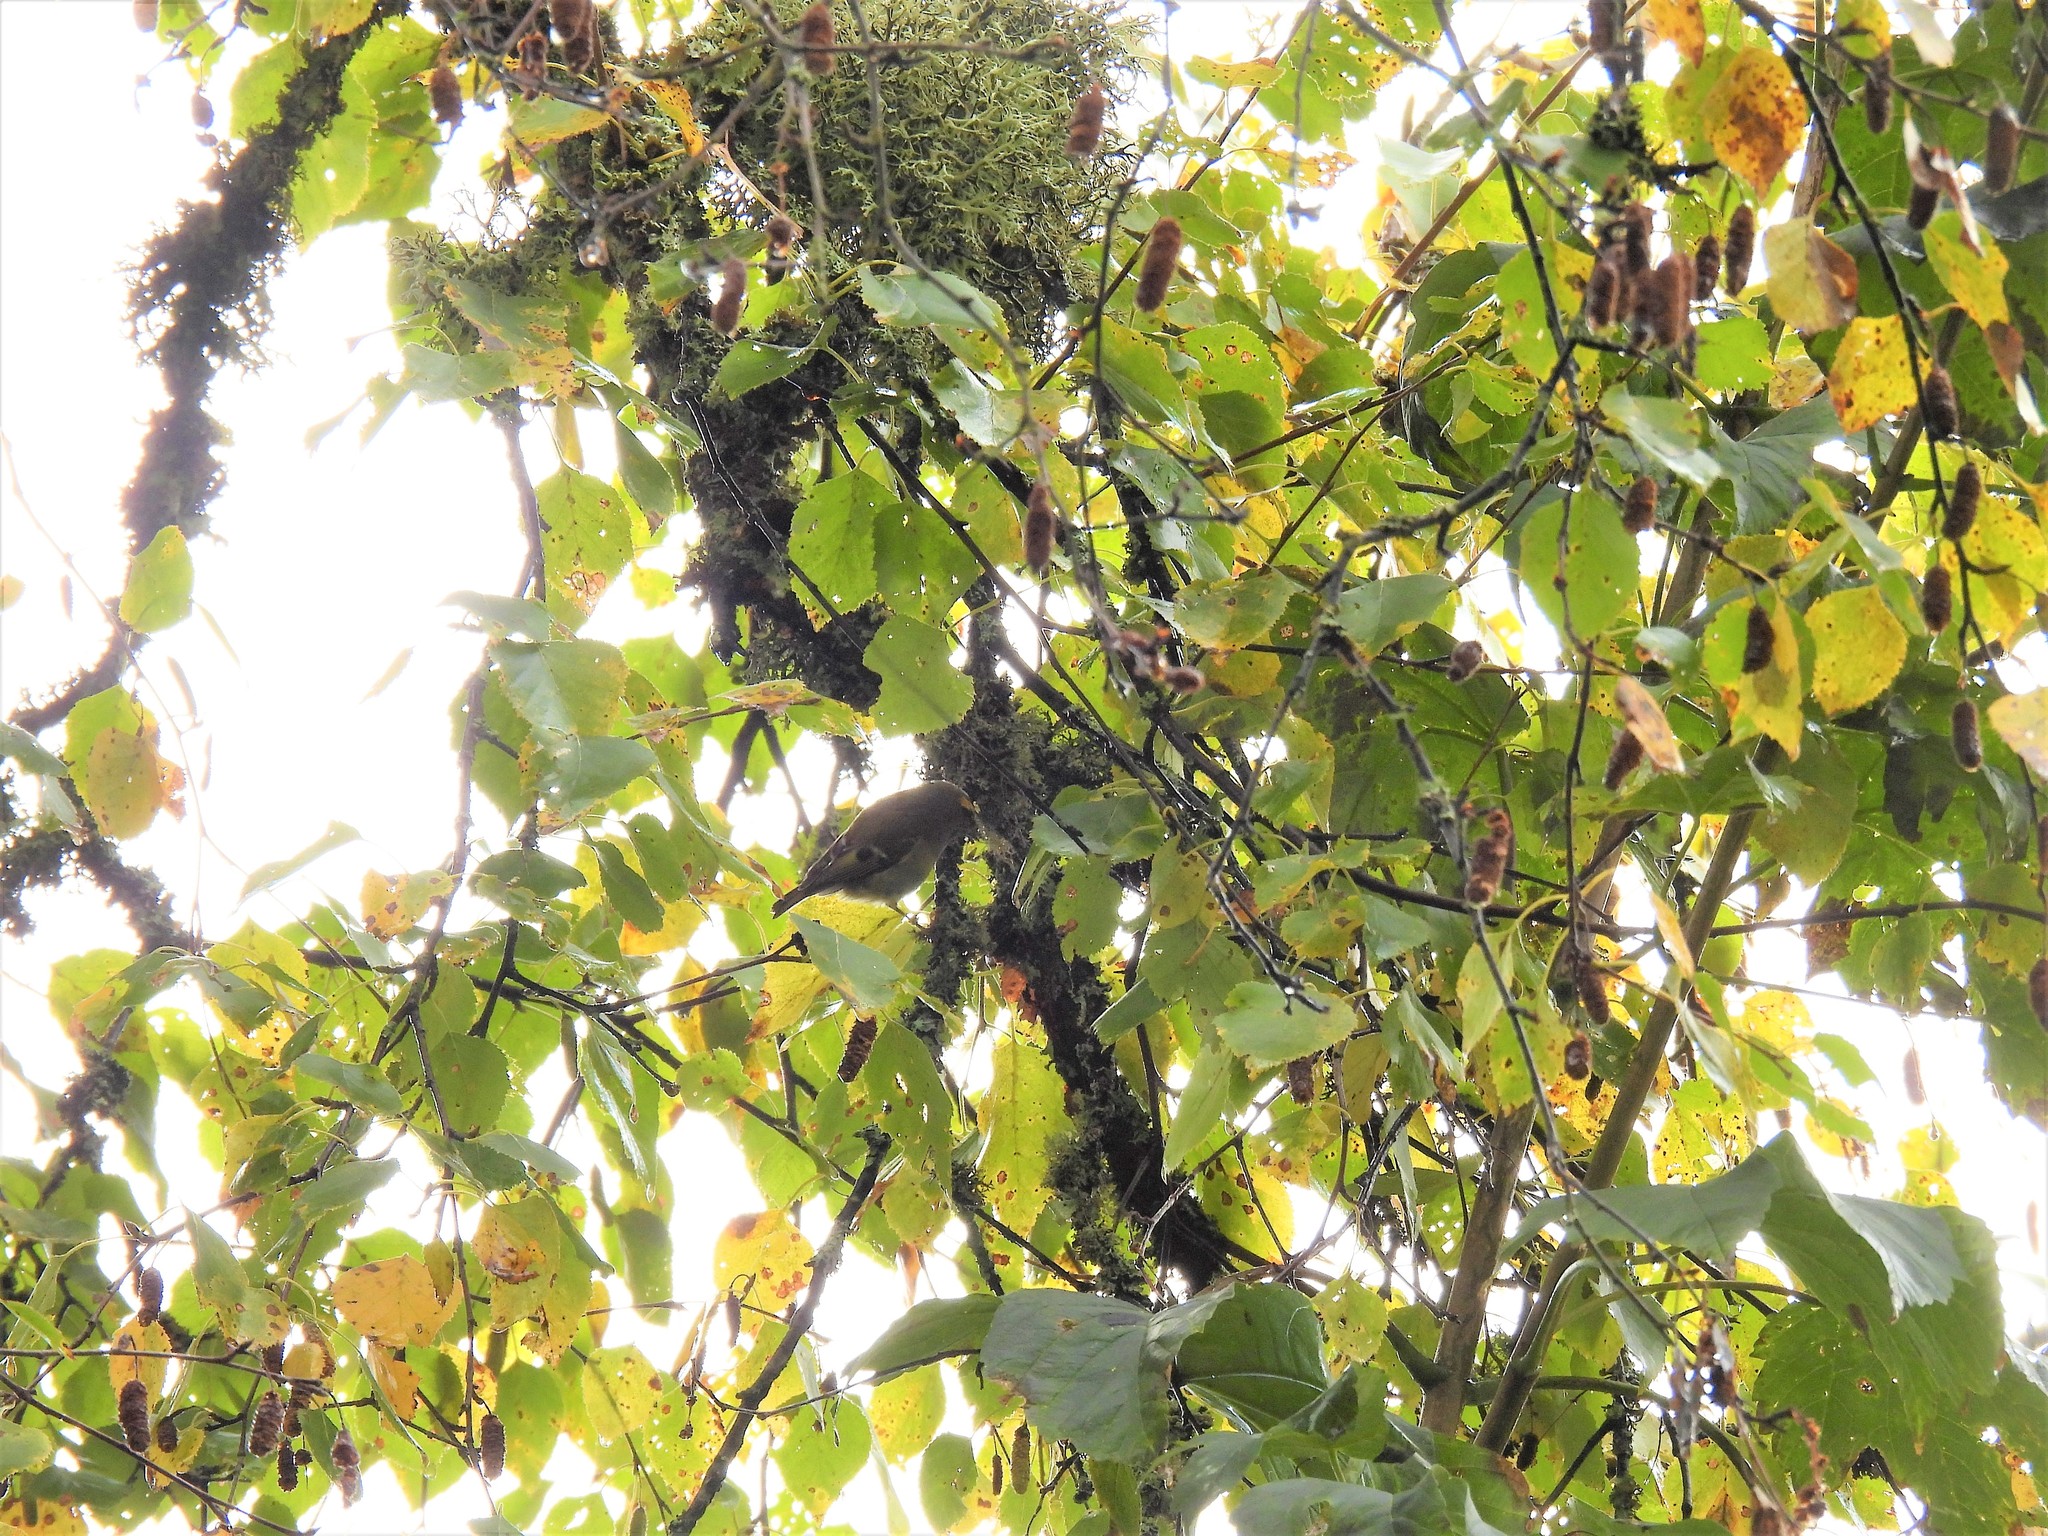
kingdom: Animalia
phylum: Chordata
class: Aves
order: Passeriformes
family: Regulidae
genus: Regulus
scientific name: Regulus regulus
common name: Goldcrest
